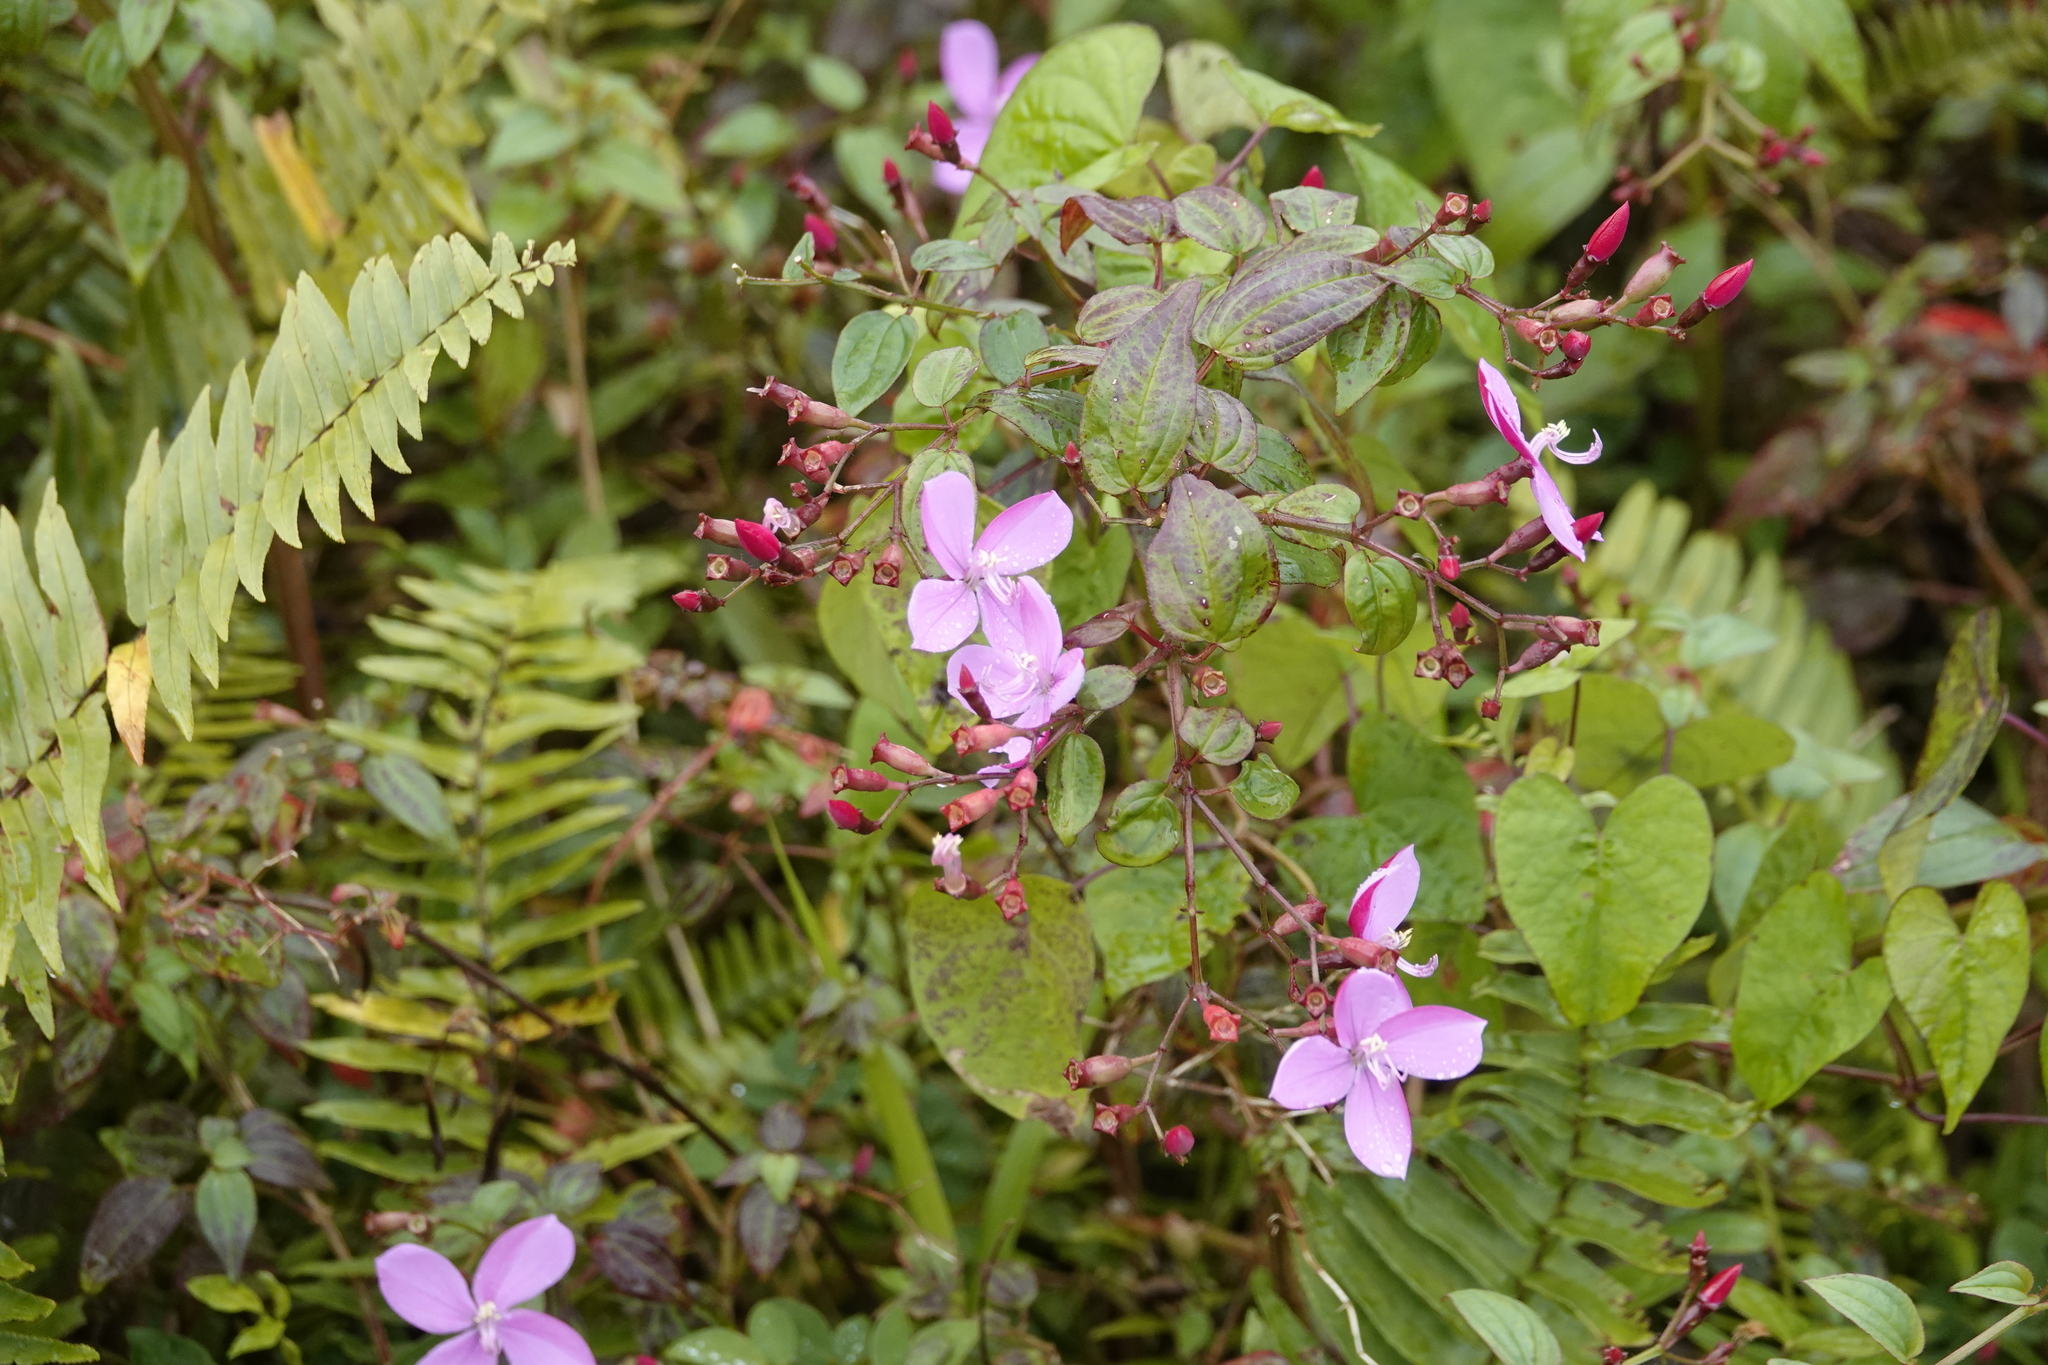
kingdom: Plantae
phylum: Tracheophyta
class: Magnoliopsida
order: Myrtales
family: Melastomataceae
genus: Arthrostemma
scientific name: Arthrostemma ciliatum
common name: Everblooming eavender
